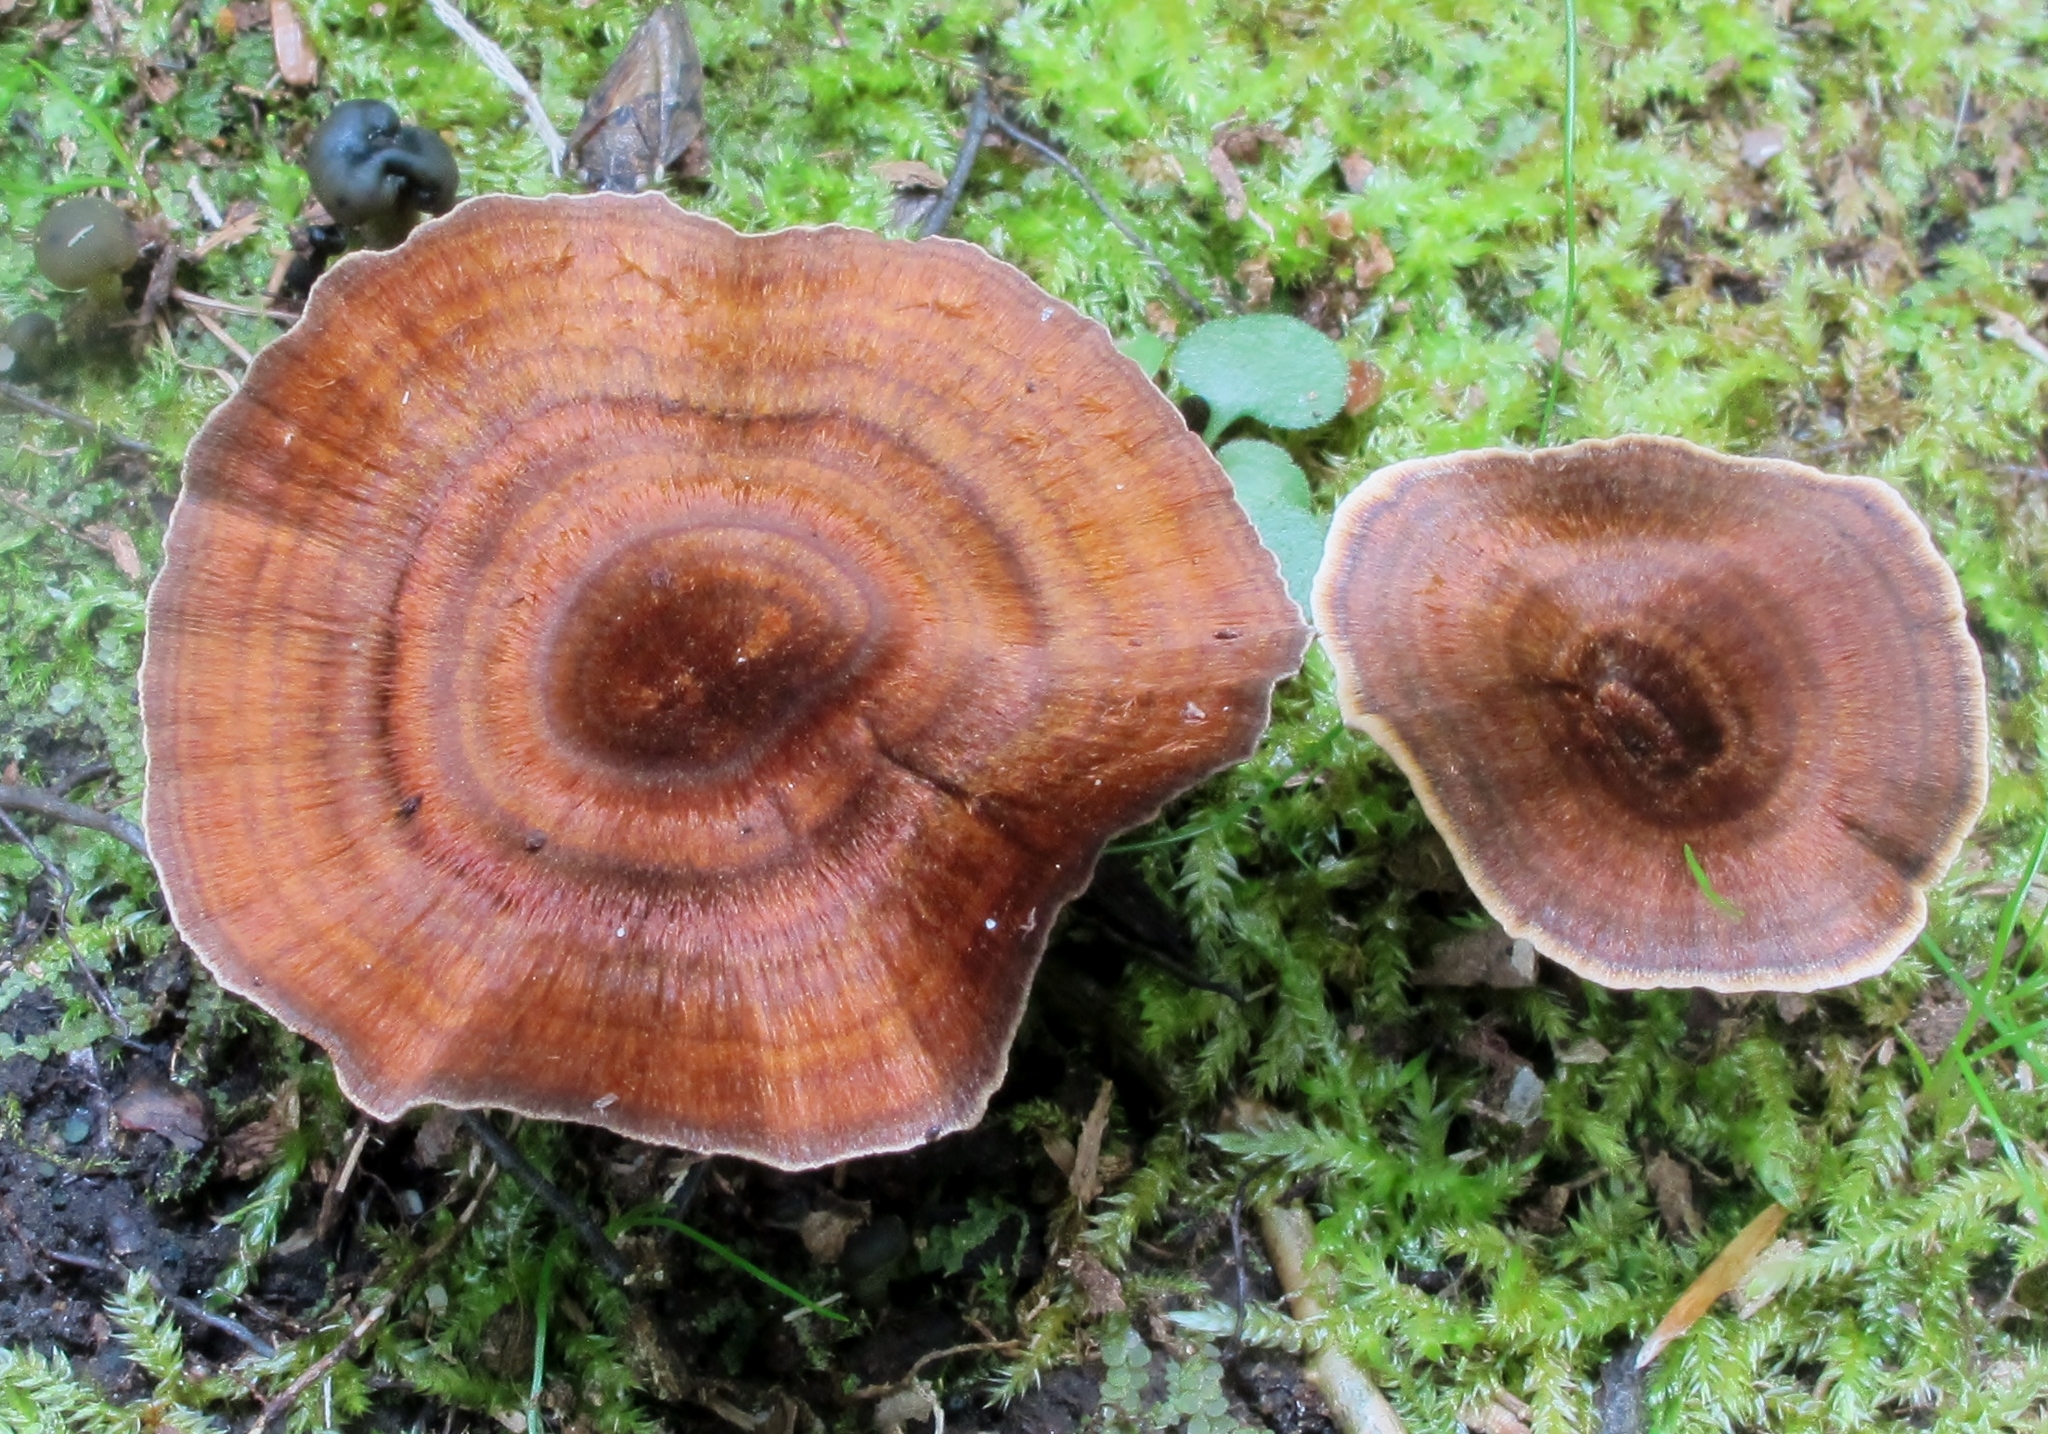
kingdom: Fungi
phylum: Basidiomycota
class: Agaricomycetes
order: Hymenochaetales
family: Hymenochaetaceae
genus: Coltricia
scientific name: Coltricia cinnamomea
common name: Shiny cinnamon polypore
